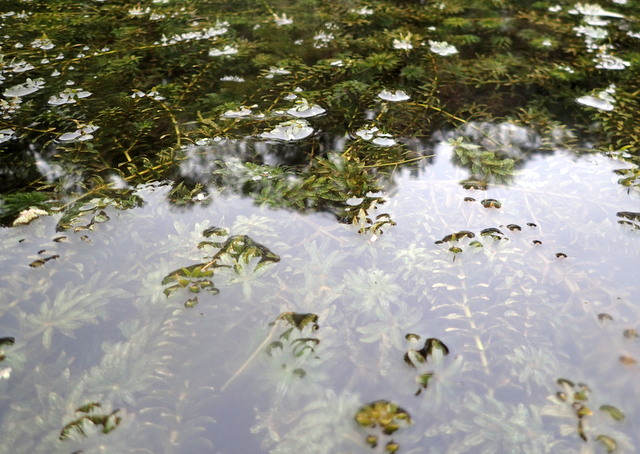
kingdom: Plantae
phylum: Tracheophyta
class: Liliopsida
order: Alismatales
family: Hydrocharitaceae
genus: Hydrilla
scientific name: Hydrilla verticillata
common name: Florida-elodea
